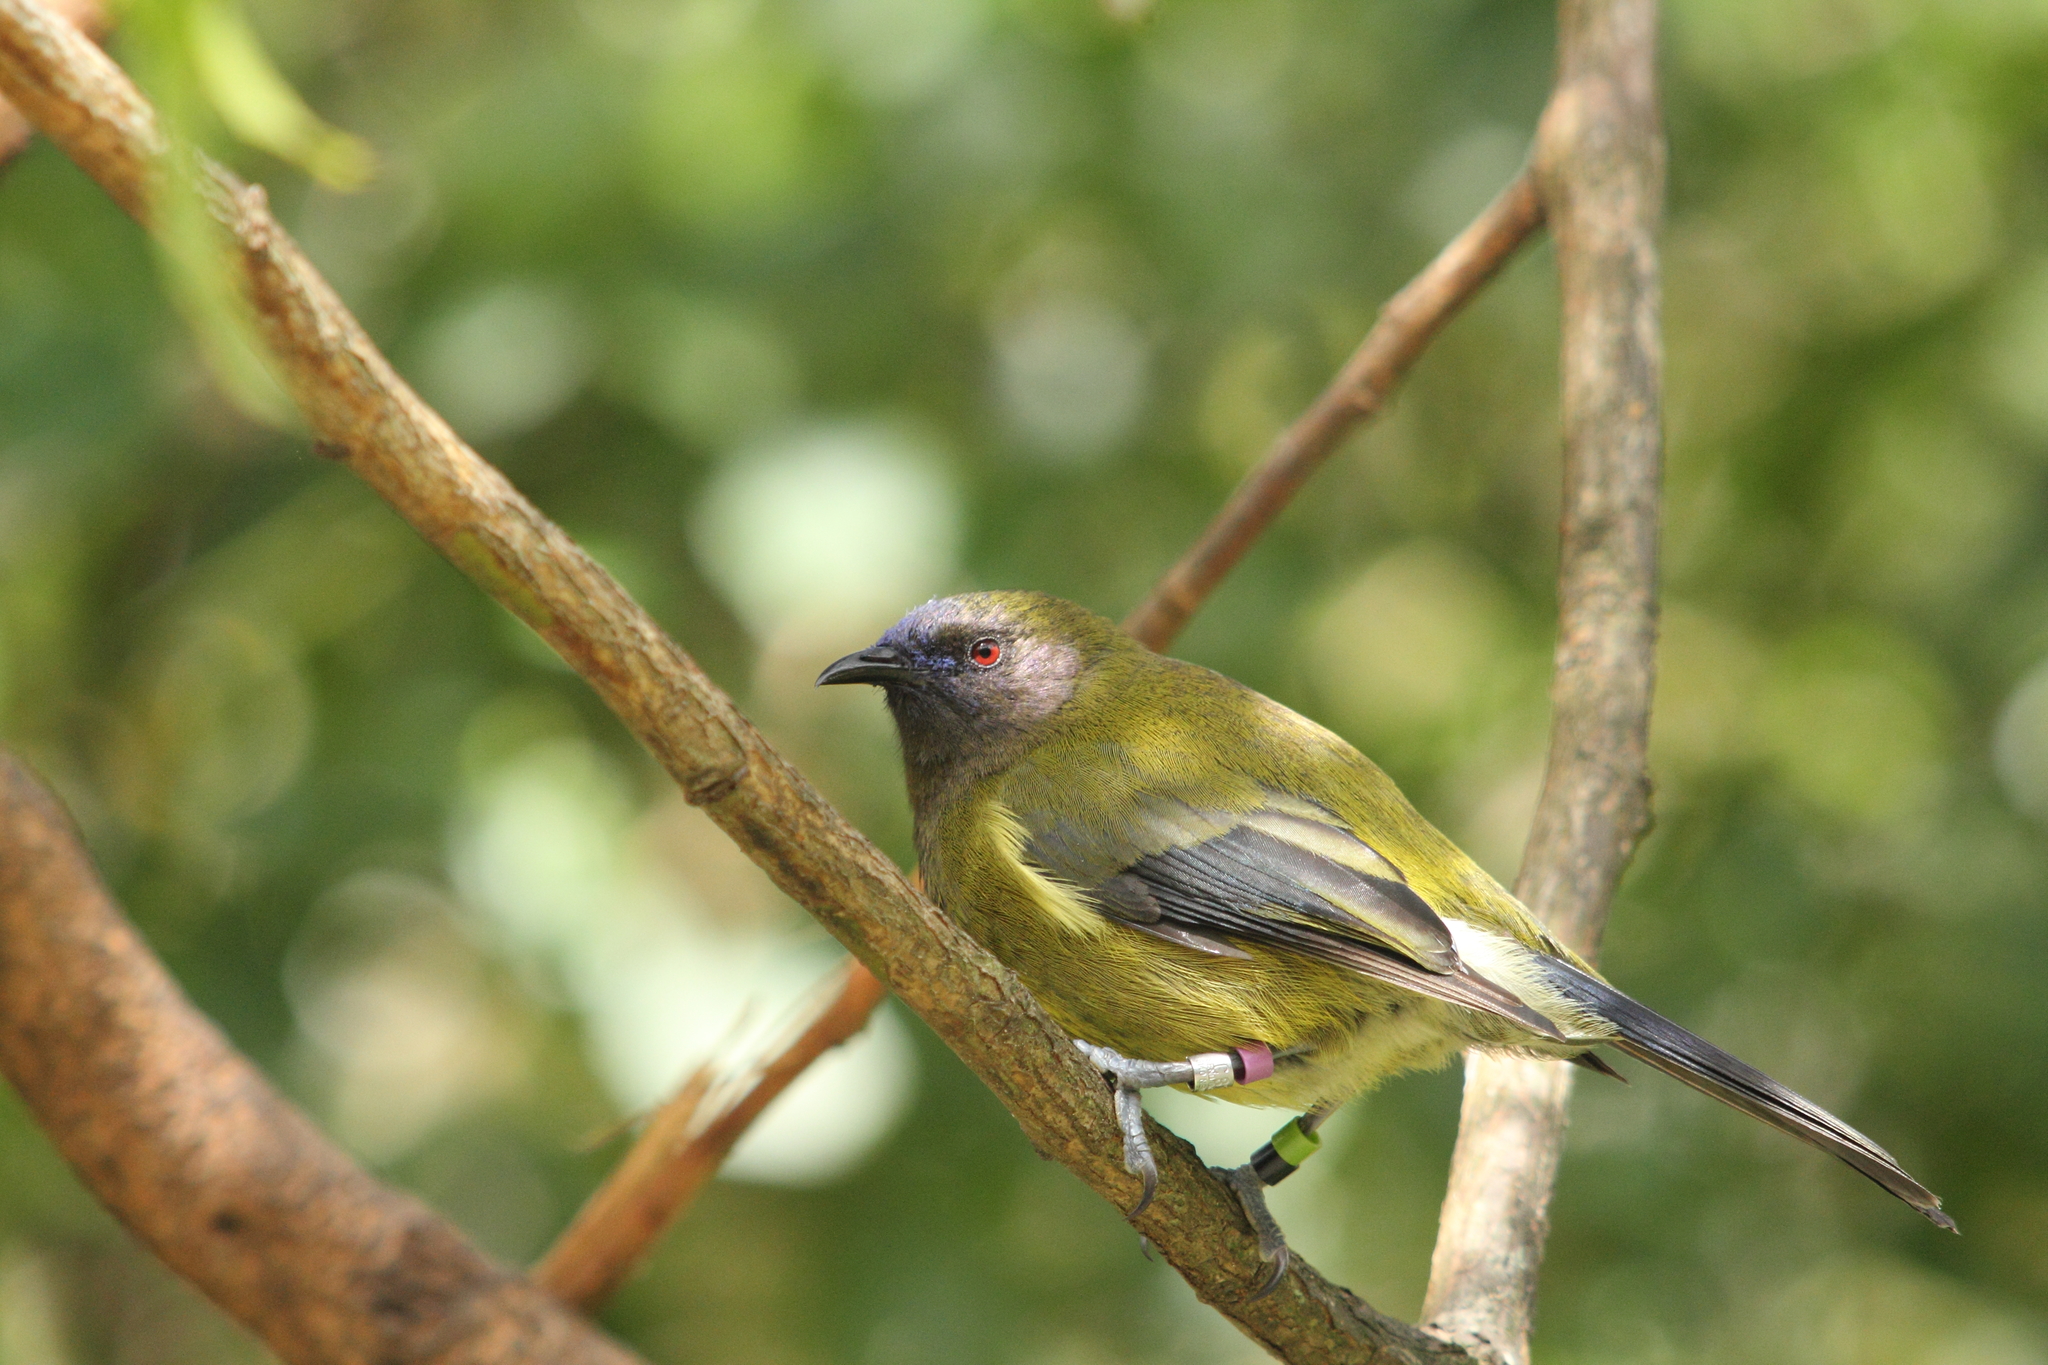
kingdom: Animalia
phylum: Chordata
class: Aves
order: Passeriformes
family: Meliphagidae
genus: Anthornis
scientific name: Anthornis melanura
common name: New zealand bellbird
